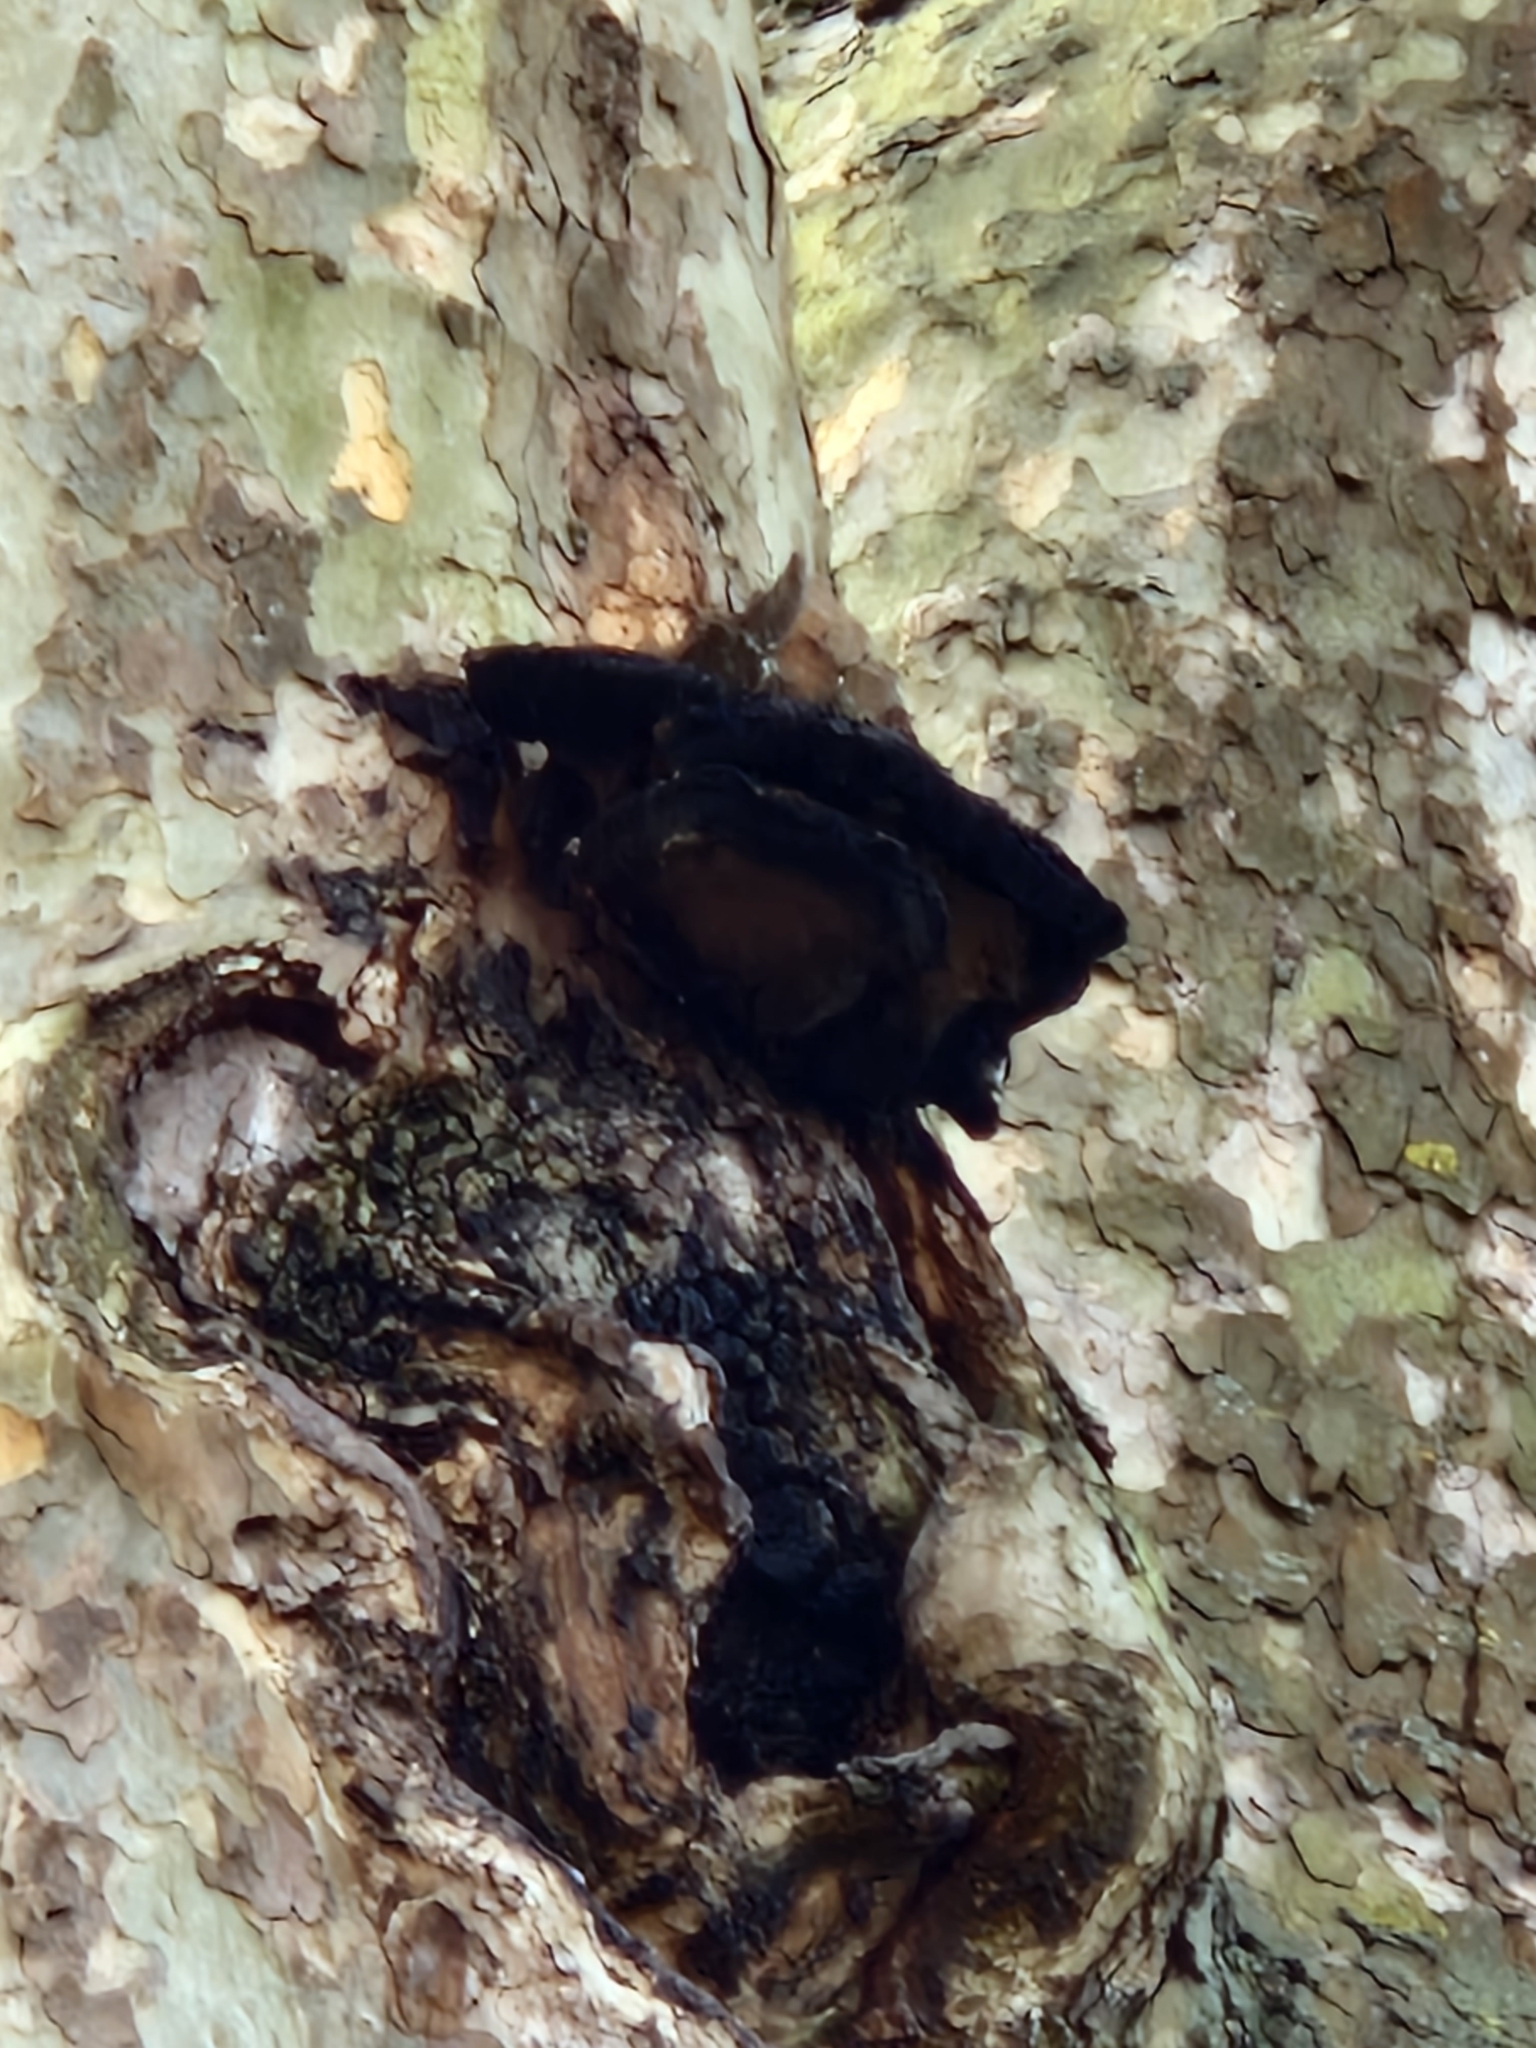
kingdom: Fungi
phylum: Basidiomycota
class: Agaricomycetes
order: Hymenochaetales
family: Hymenochaetaceae
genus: Inonotus
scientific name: Inonotus hispidus
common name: Shaggy bracket
